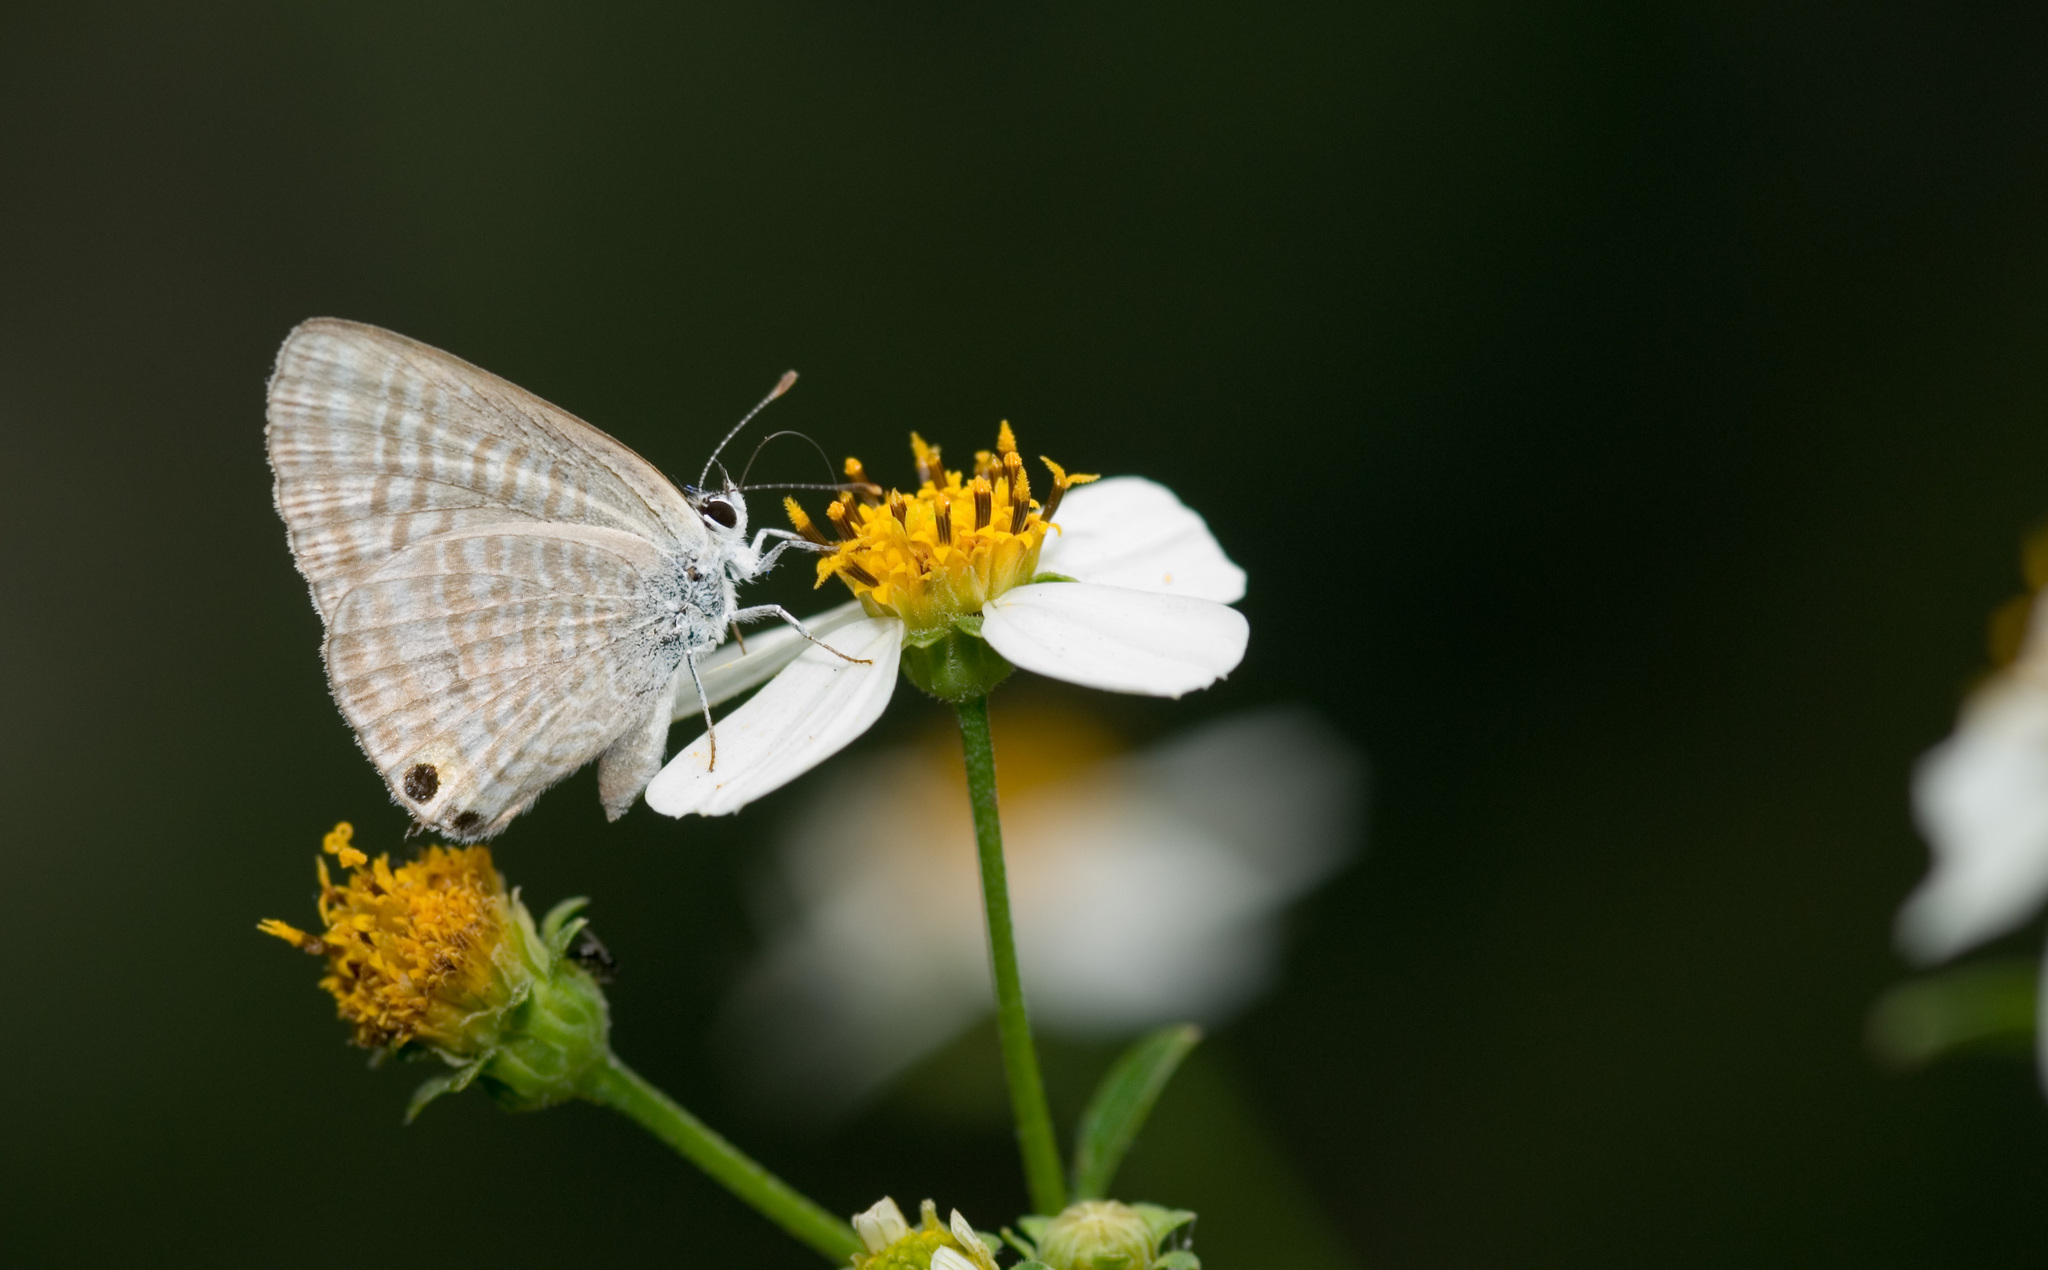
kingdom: Animalia
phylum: Arthropoda
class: Insecta
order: Lepidoptera
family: Lycaenidae
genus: Lampides
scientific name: Lampides boeticus
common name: Long-tailed blue
